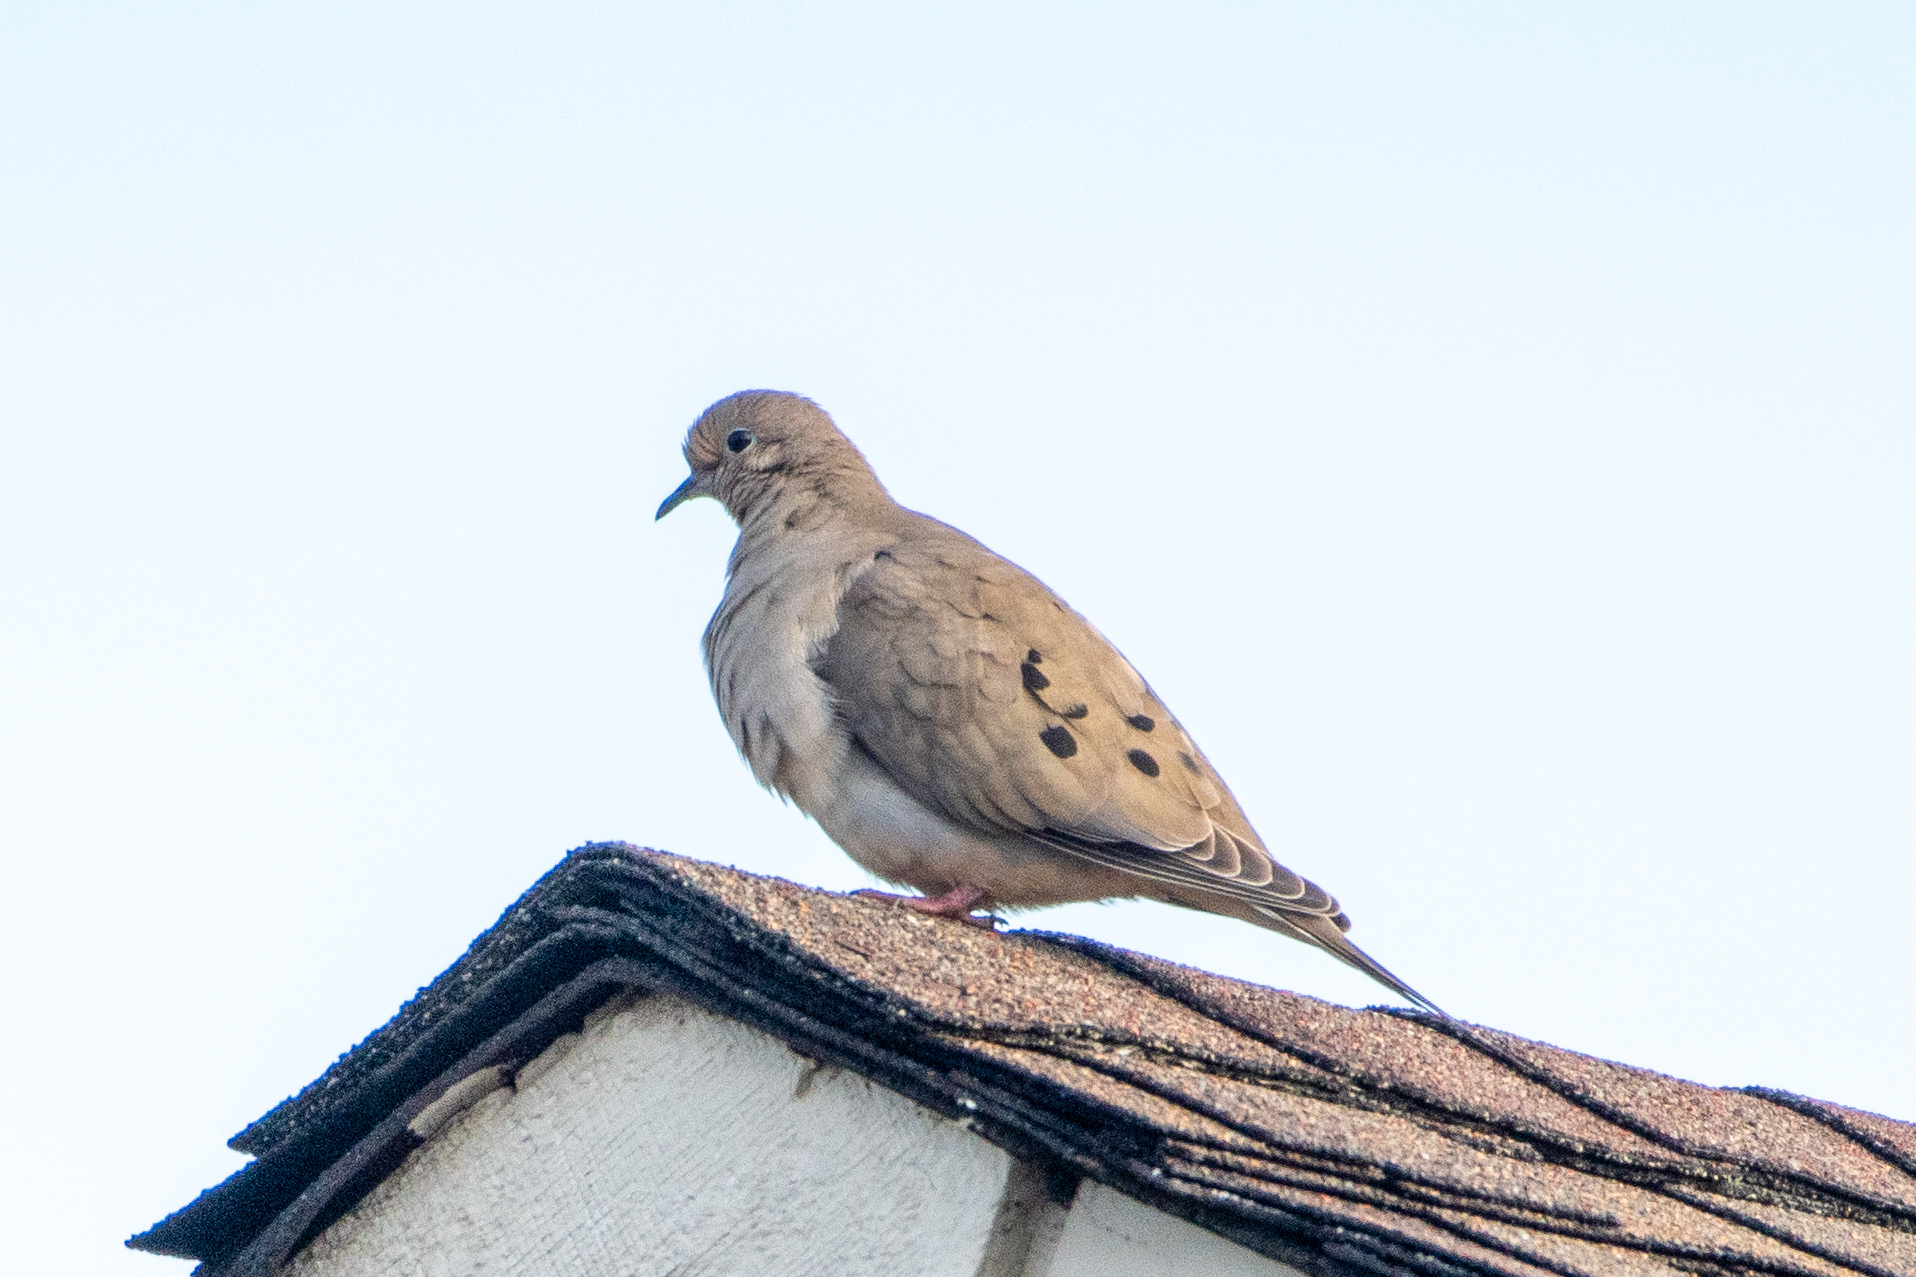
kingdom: Animalia
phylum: Chordata
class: Aves
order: Columbiformes
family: Columbidae
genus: Zenaida
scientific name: Zenaida macroura
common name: Mourning dove
